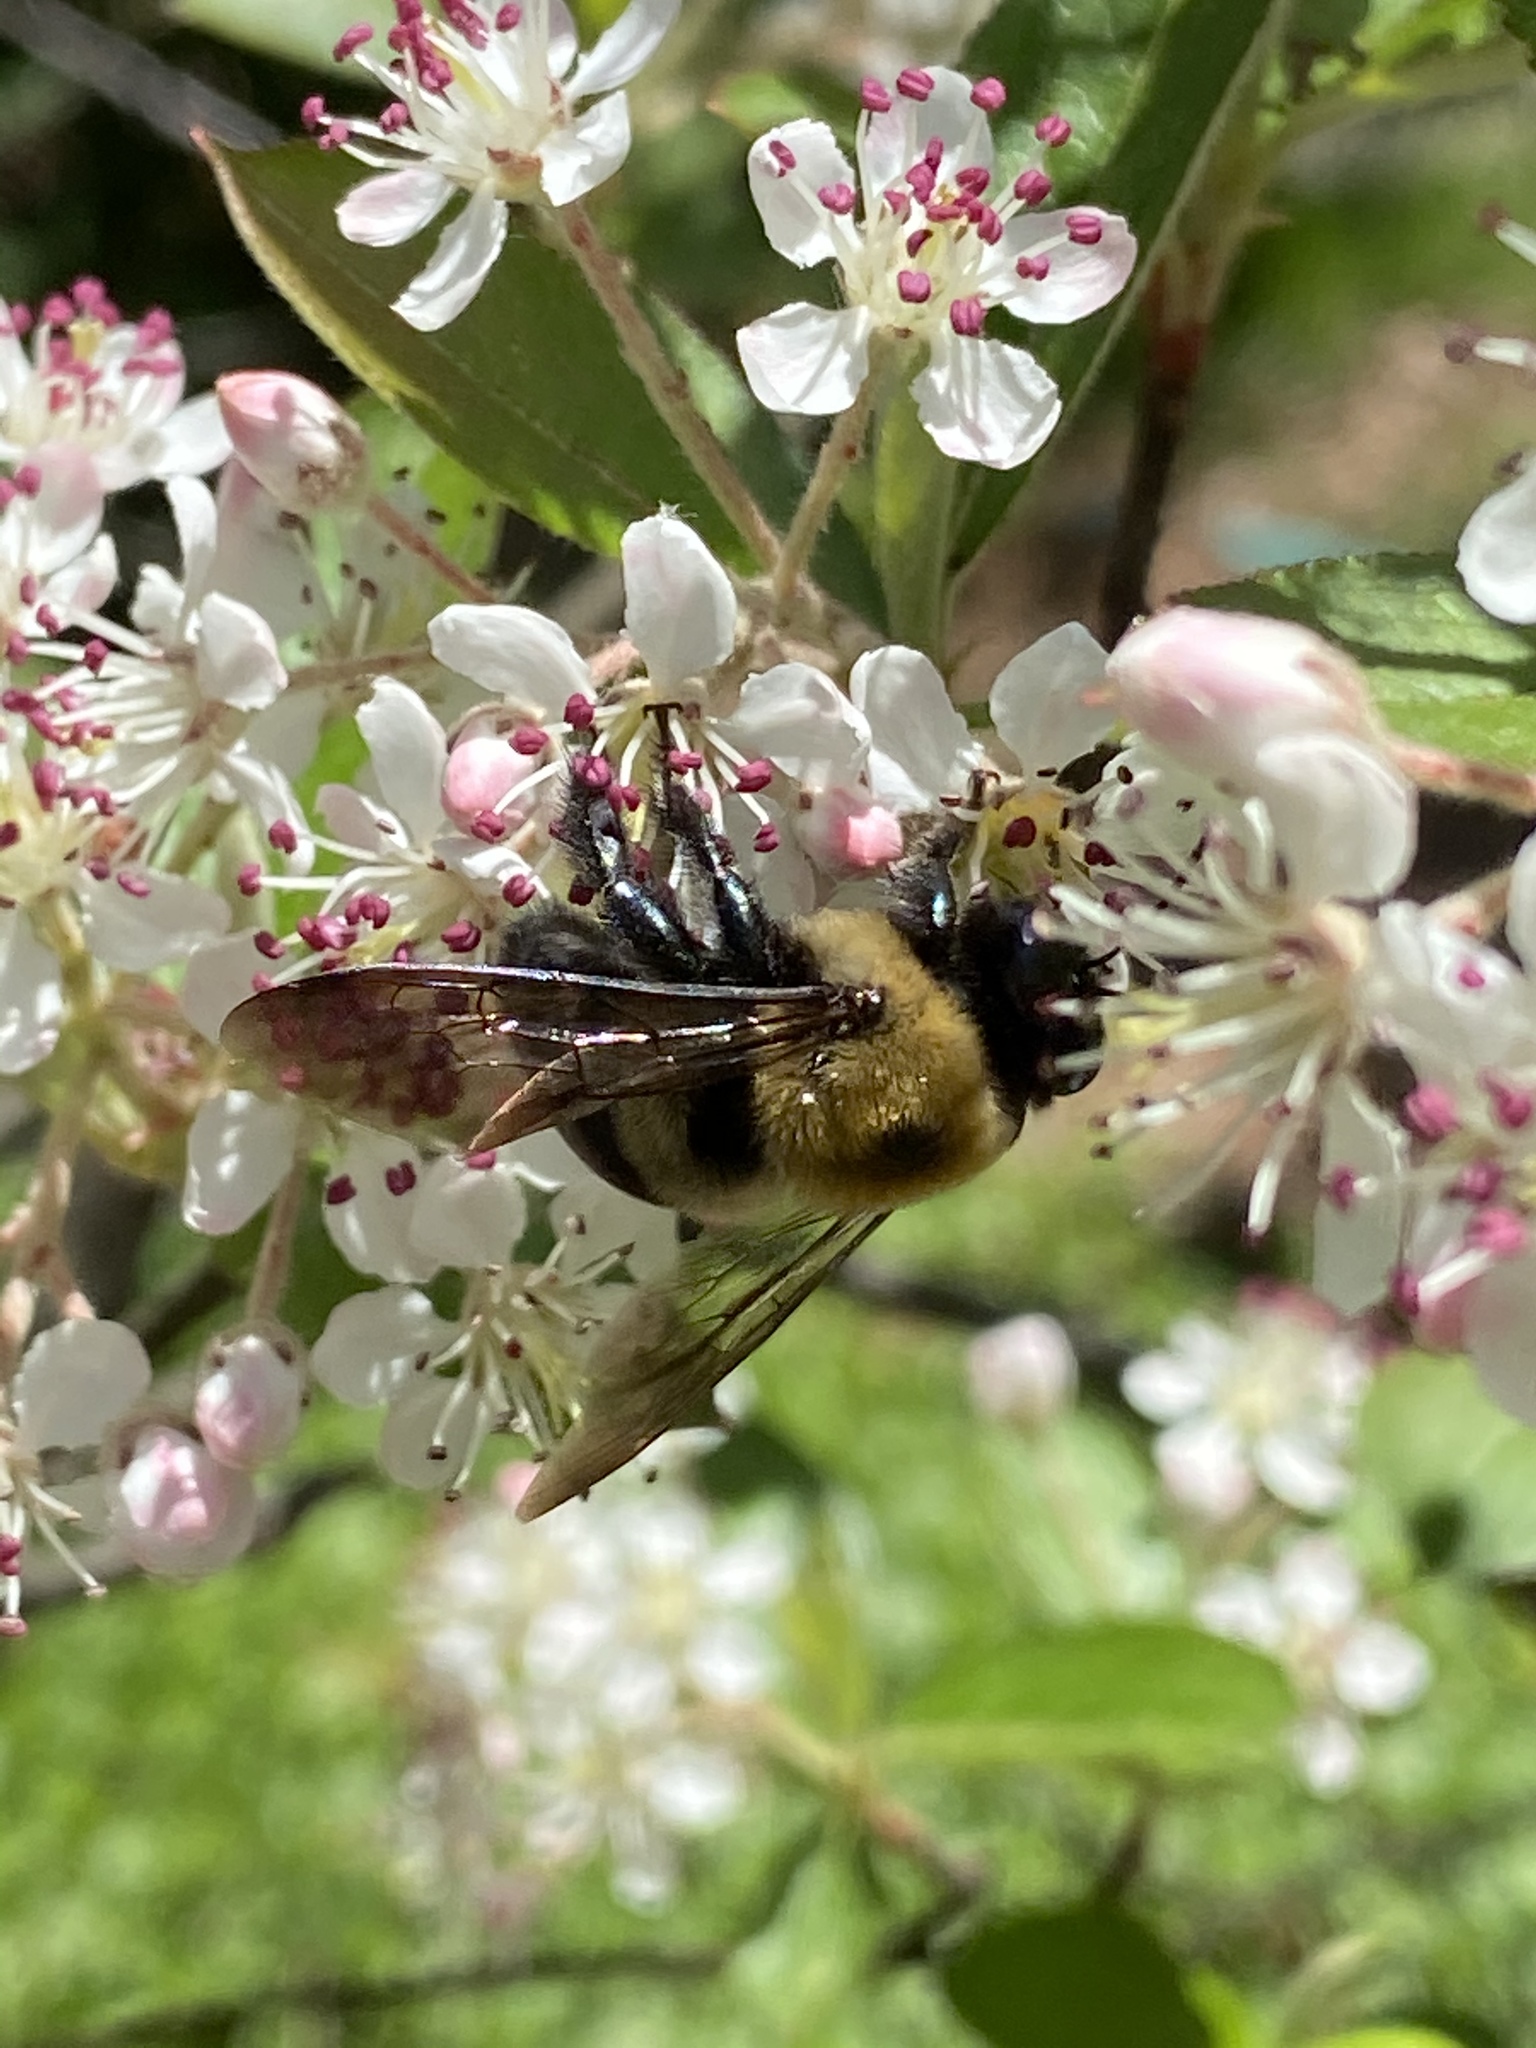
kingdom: Animalia
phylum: Arthropoda
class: Insecta
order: Hymenoptera
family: Apidae
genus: Xylocopa
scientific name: Xylocopa virginica
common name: Carpenter bee
